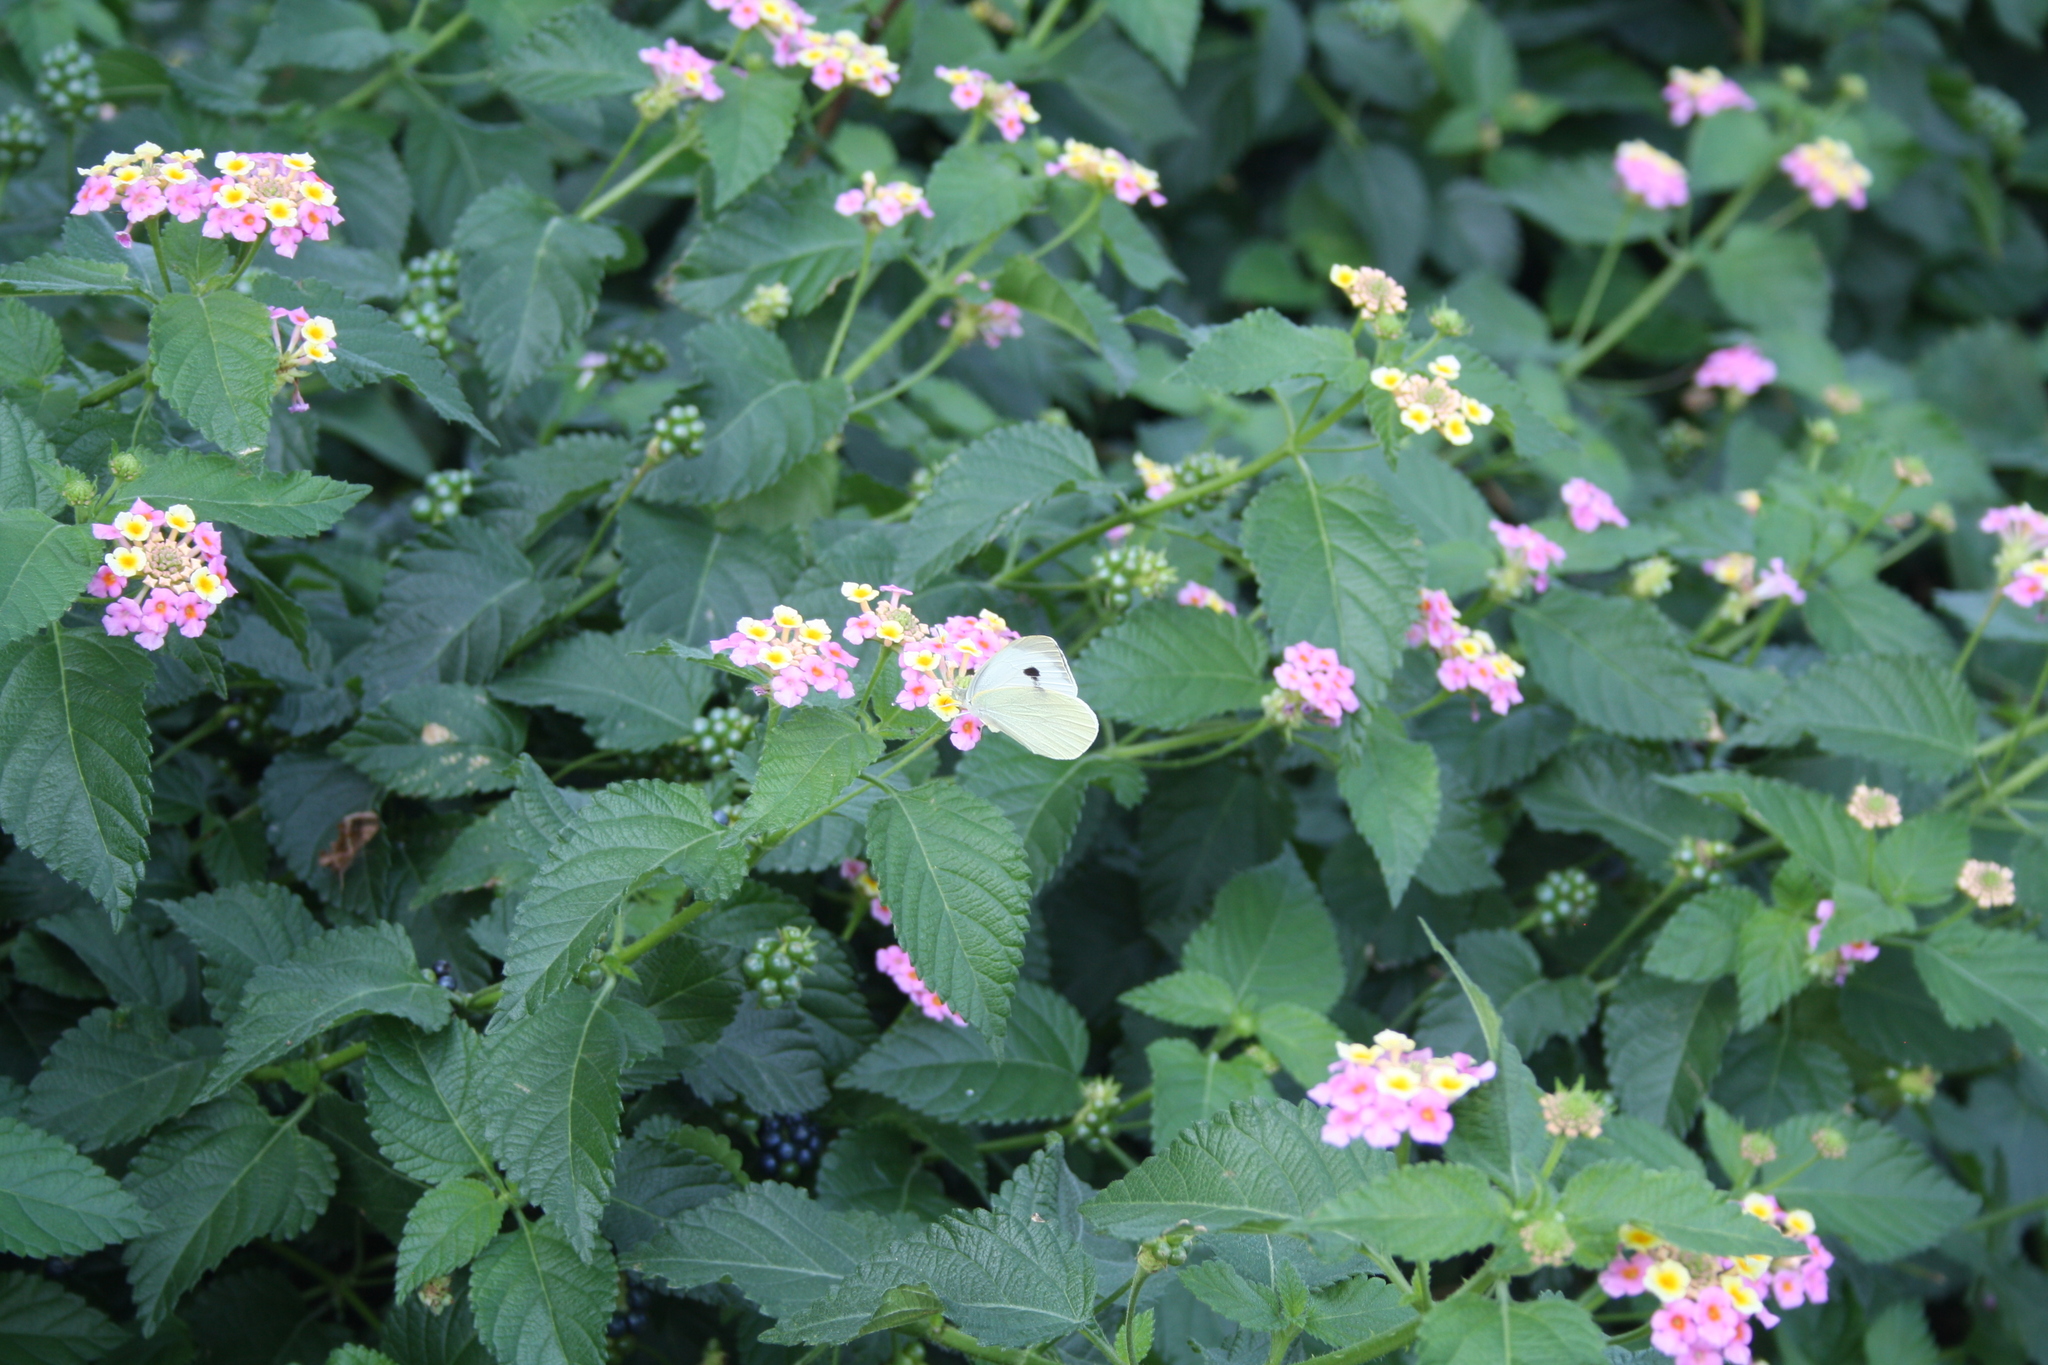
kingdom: Animalia
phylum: Arthropoda
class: Insecta
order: Lepidoptera
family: Pieridae
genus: Pieris
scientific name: Pieris rapae
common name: Small white
